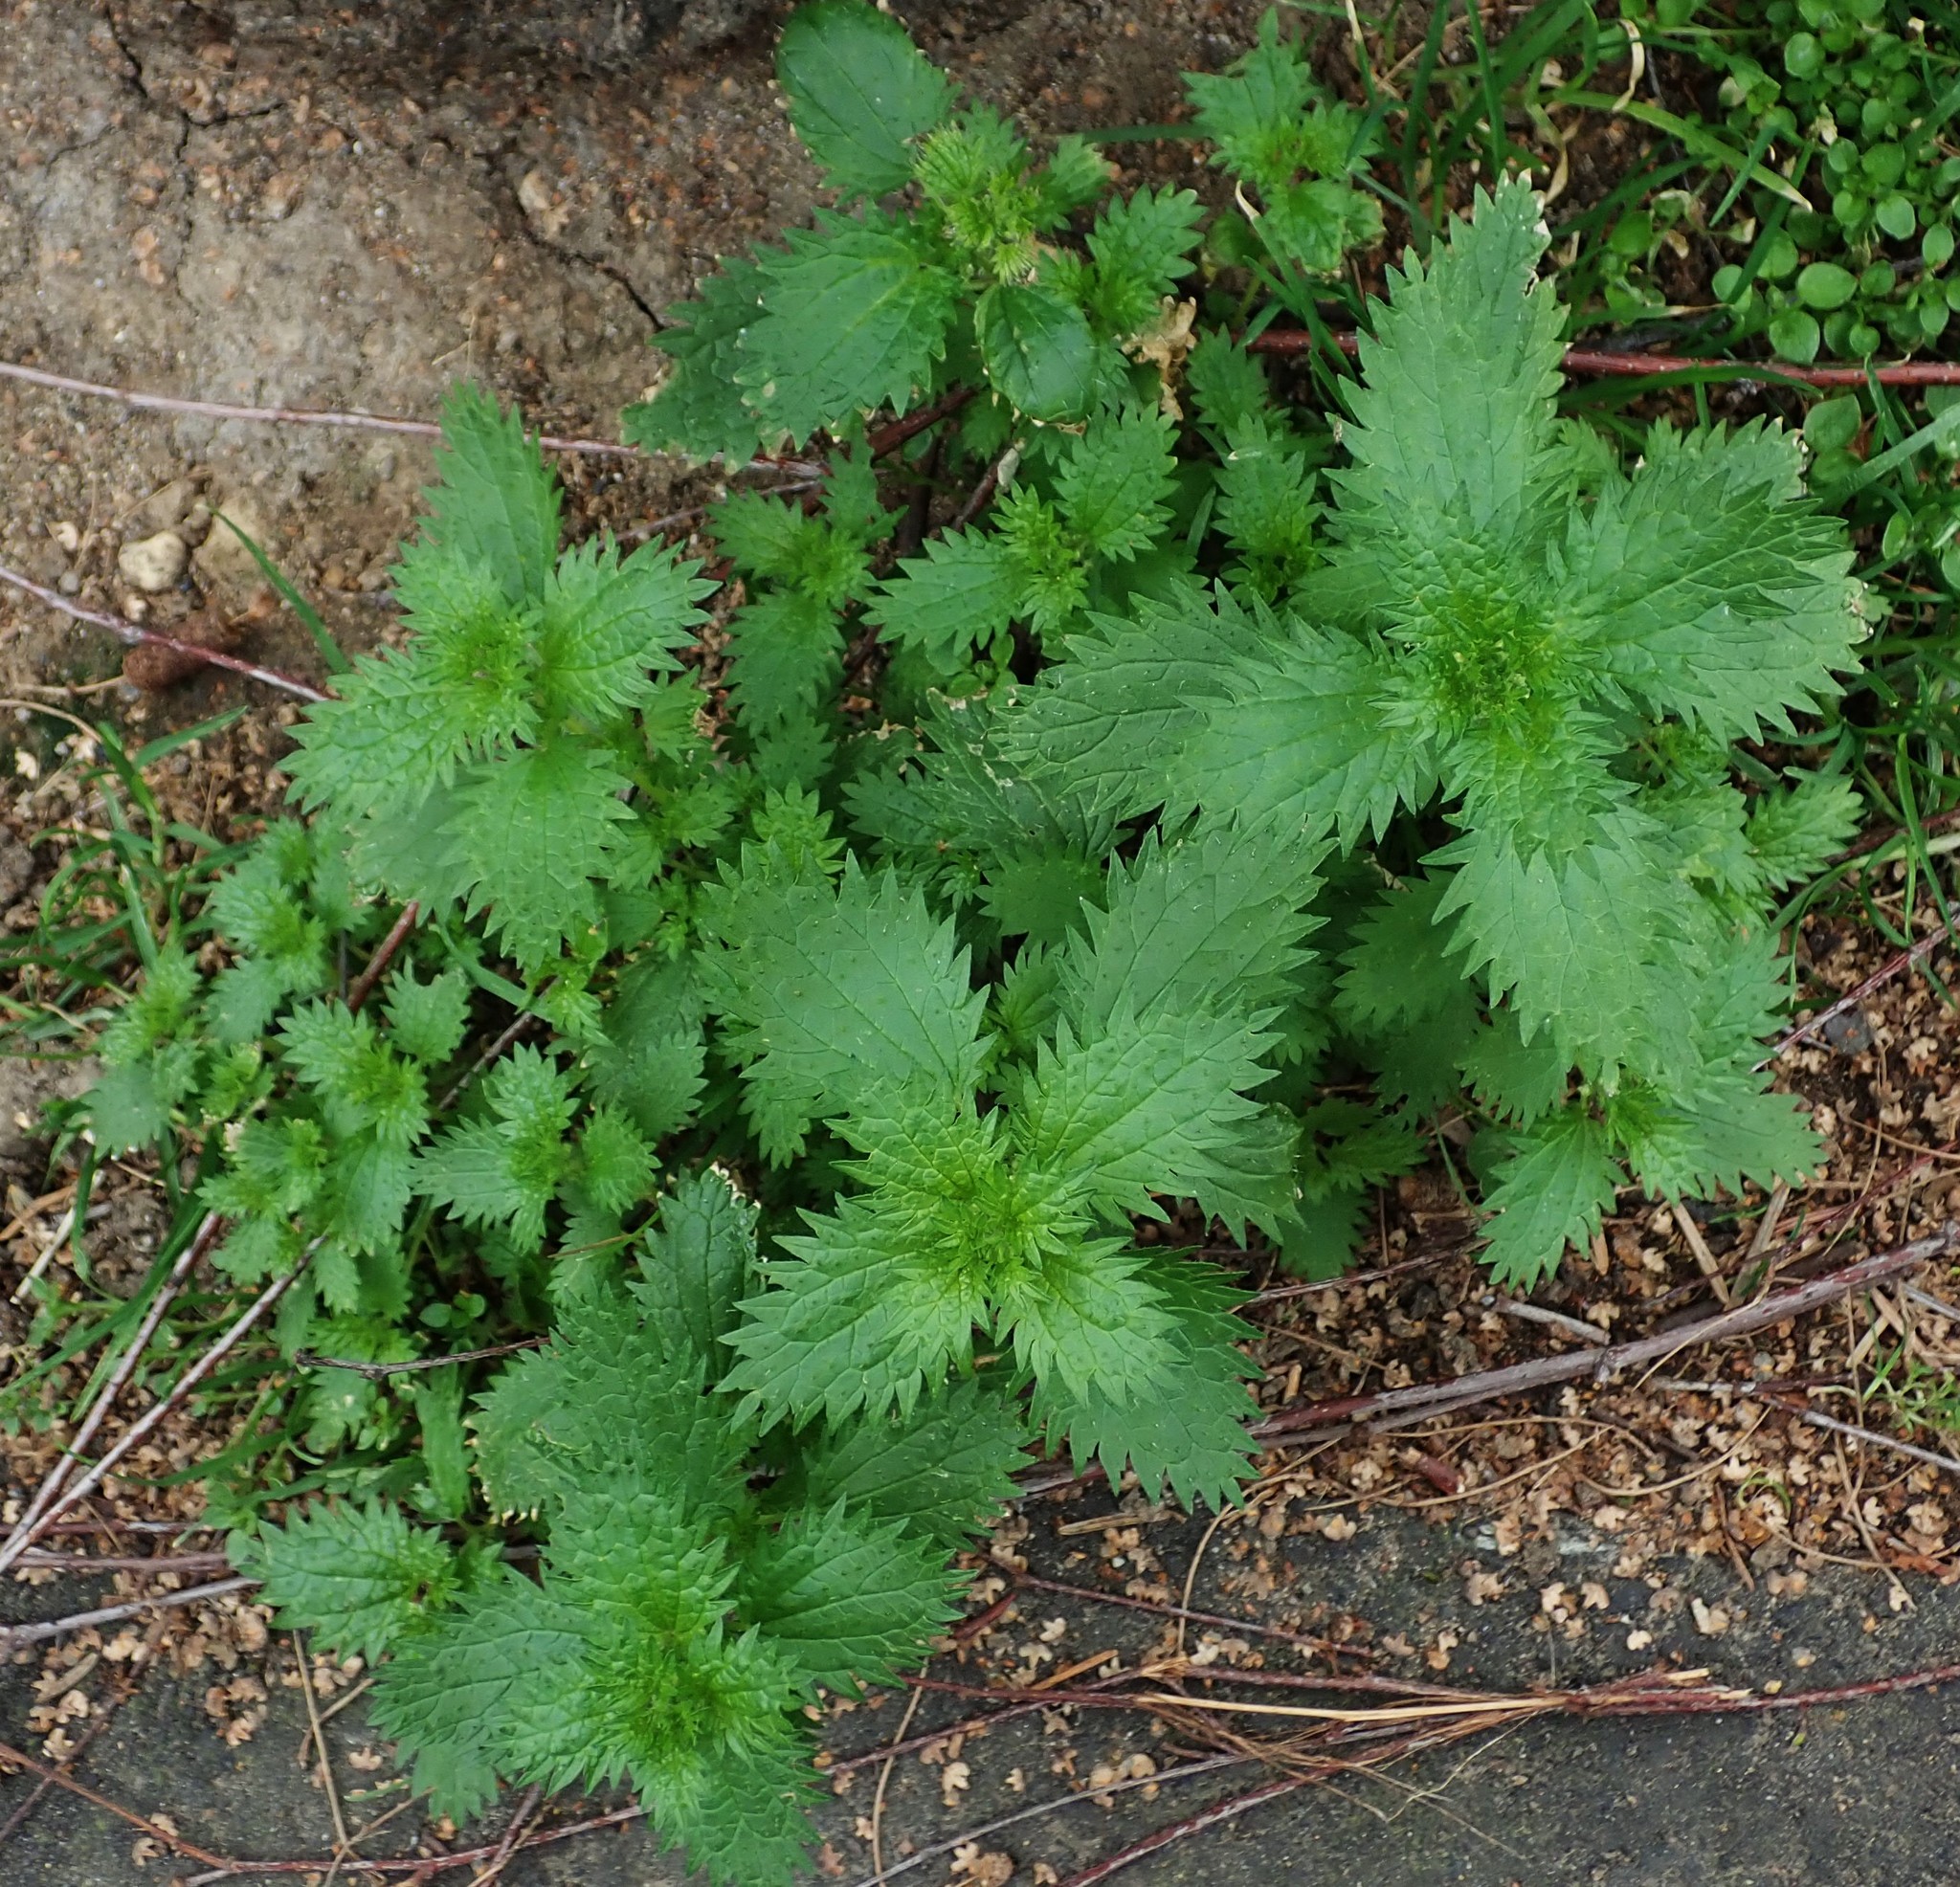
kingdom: Plantae
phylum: Tracheophyta
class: Magnoliopsida
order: Rosales
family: Urticaceae
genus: Urtica
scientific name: Urtica urens
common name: Dwarf nettle
